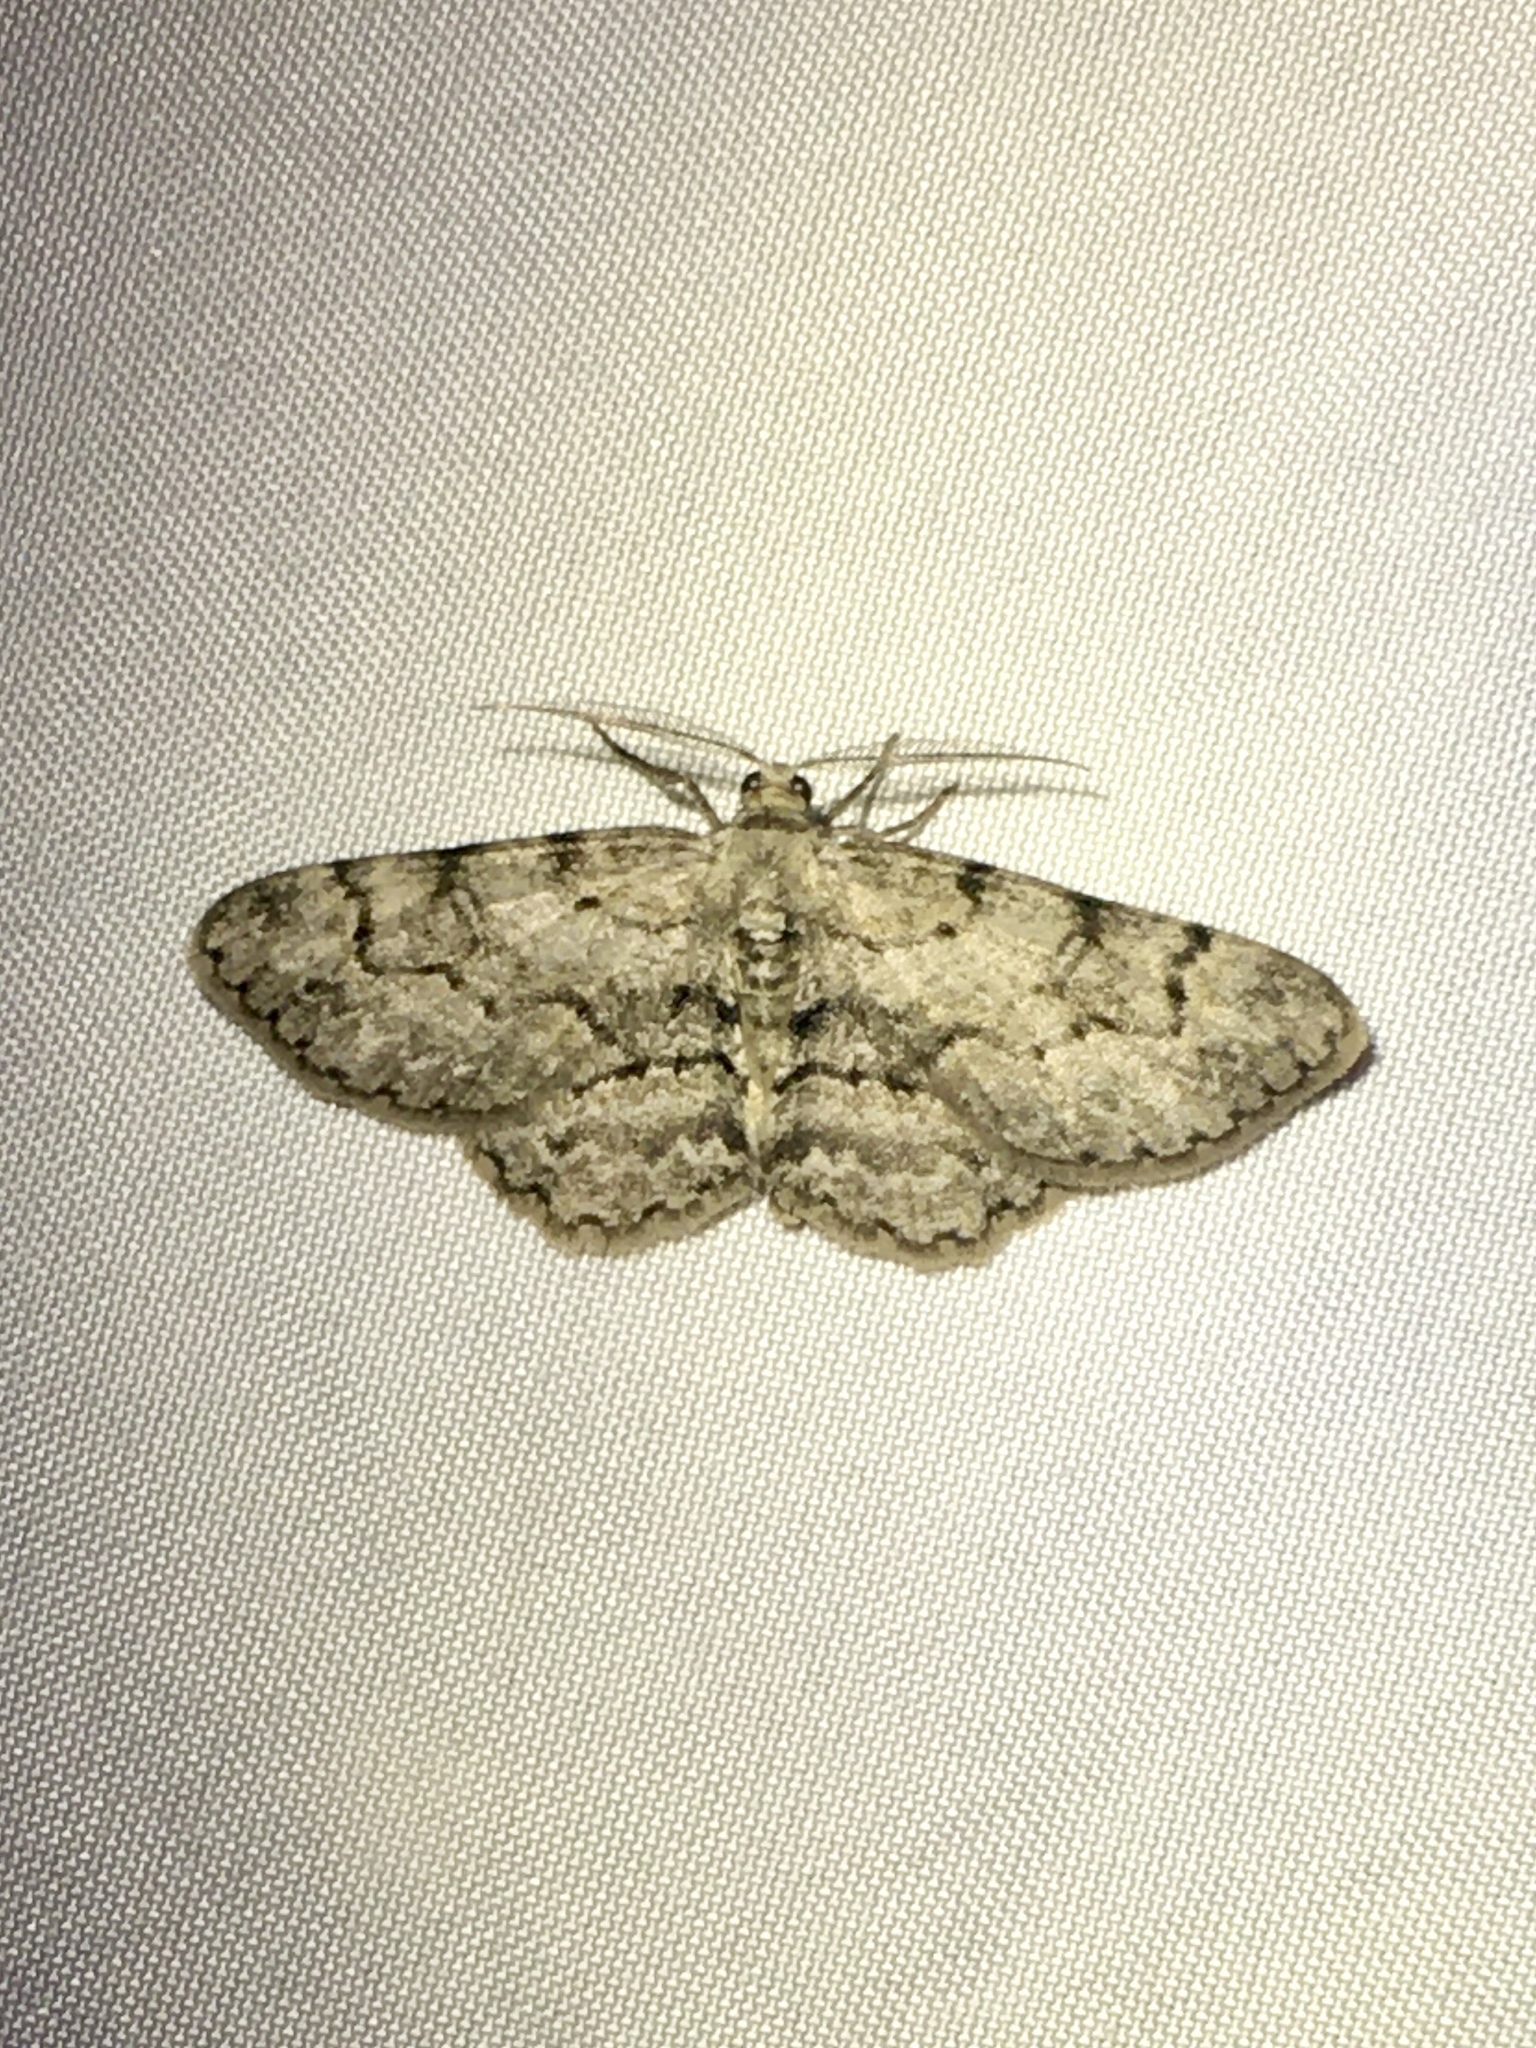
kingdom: Animalia
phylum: Arthropoda
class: Insecta
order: Lepidoptera
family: Geometridae
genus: Iridopsis
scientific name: Iridopsis ephyraria
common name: Pale-winged gray
